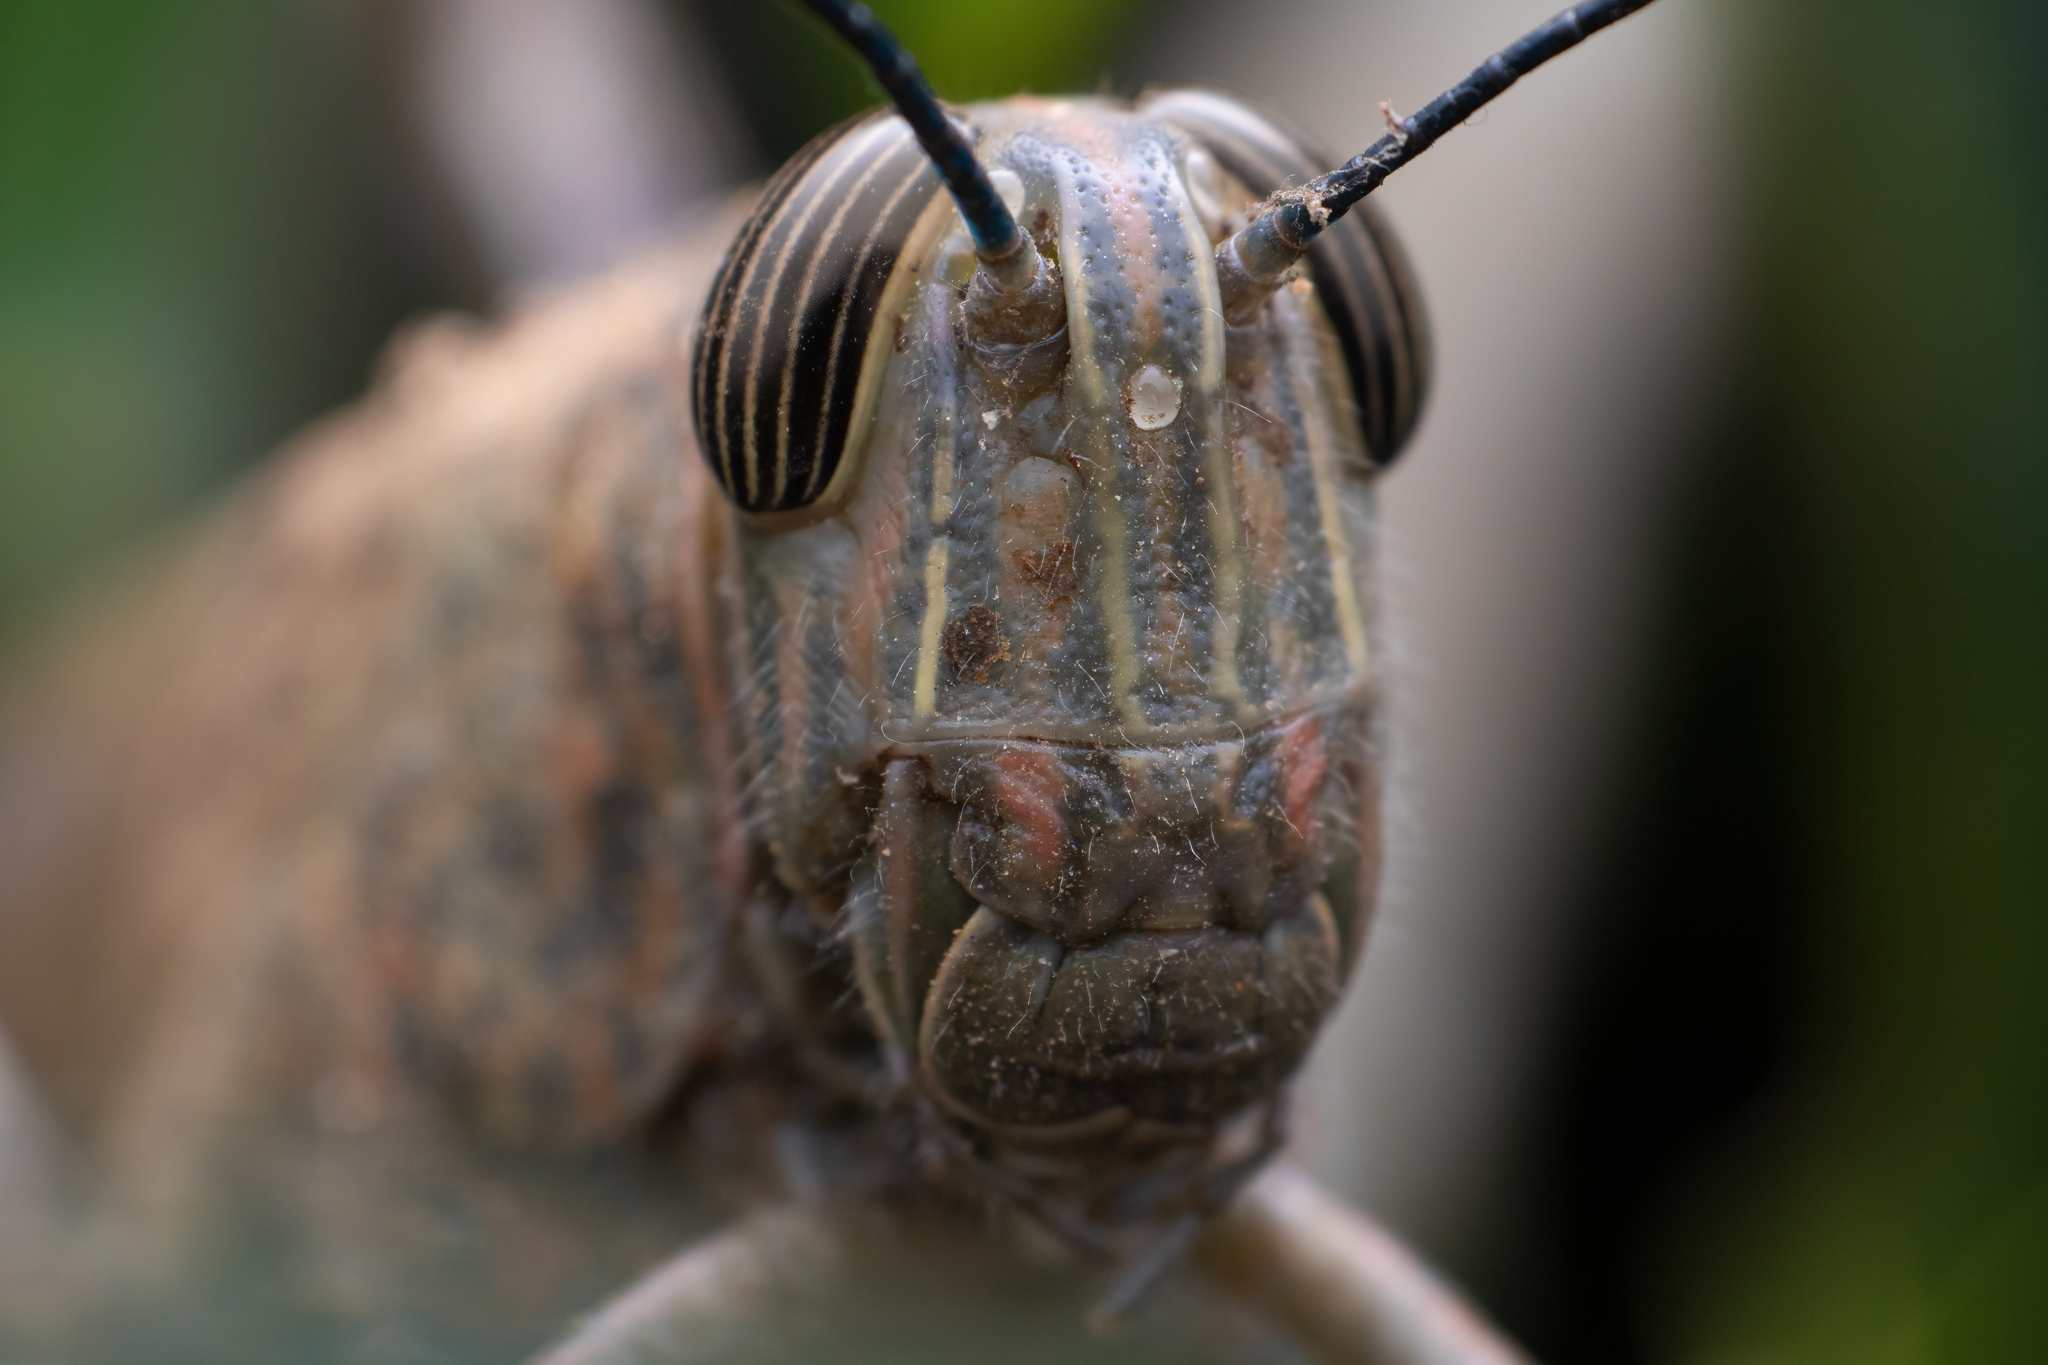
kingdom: Animalia
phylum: Arthropoda
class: Insecta
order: Orthoptera
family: Acrididae
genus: Anacridium
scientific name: Anacridium flavescens
